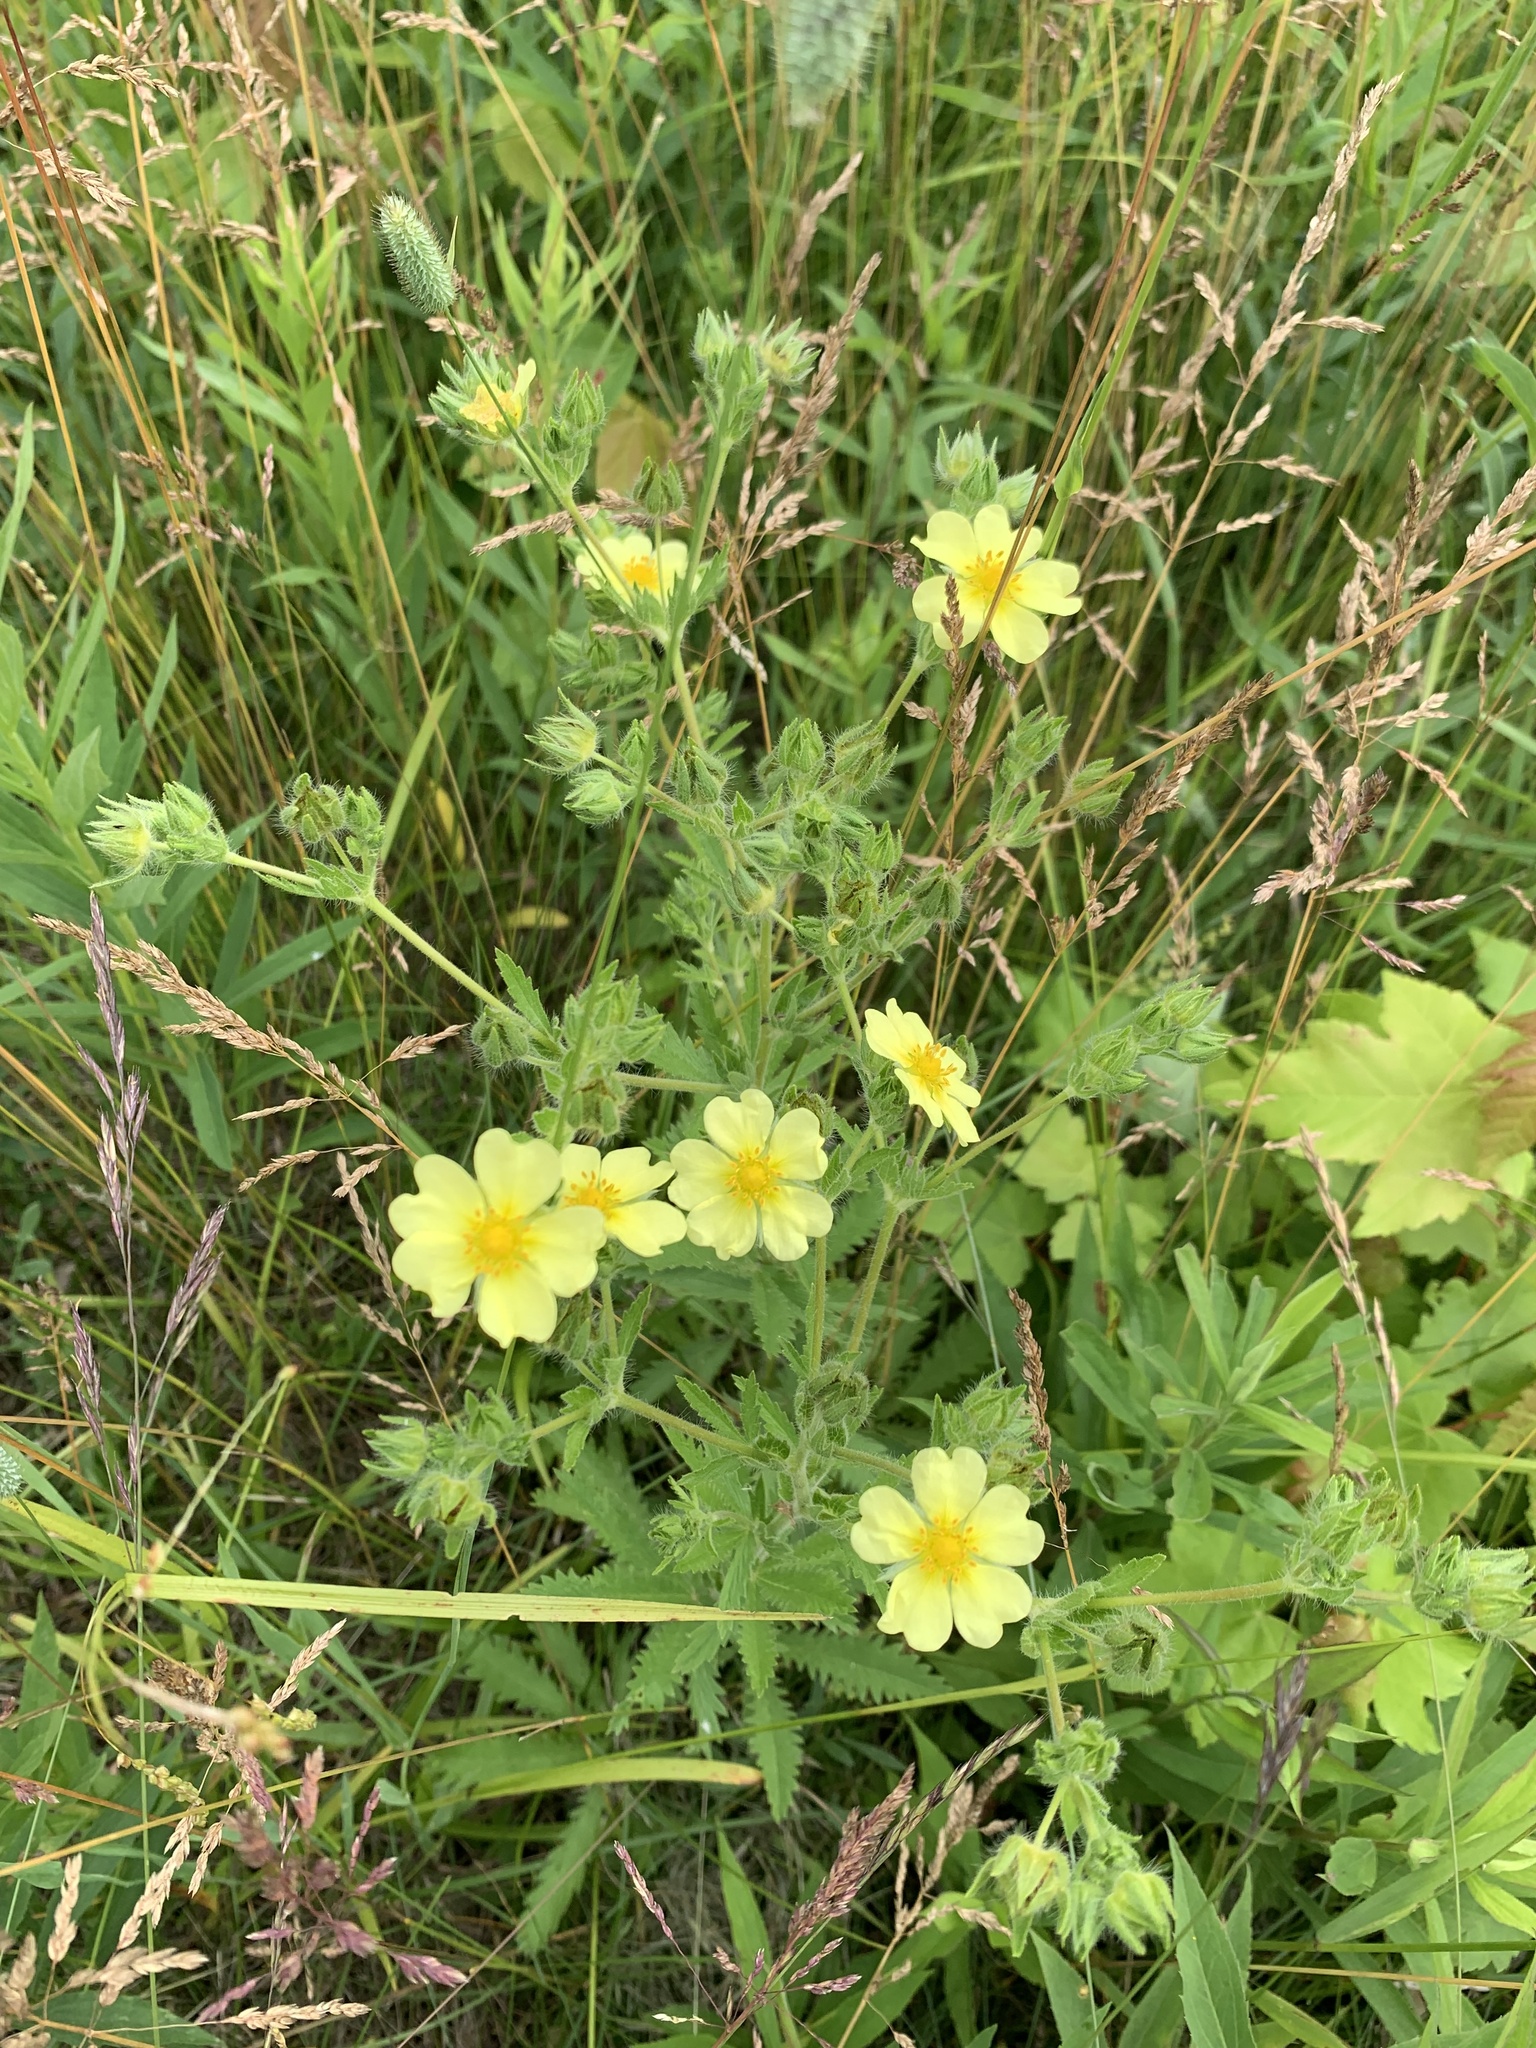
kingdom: Plantae
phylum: Tracheophyta
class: Magnoliopsida
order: Rosales
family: Rosaceae
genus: Potentilla
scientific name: Potentilla recta
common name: Sulphur cinquefoil
